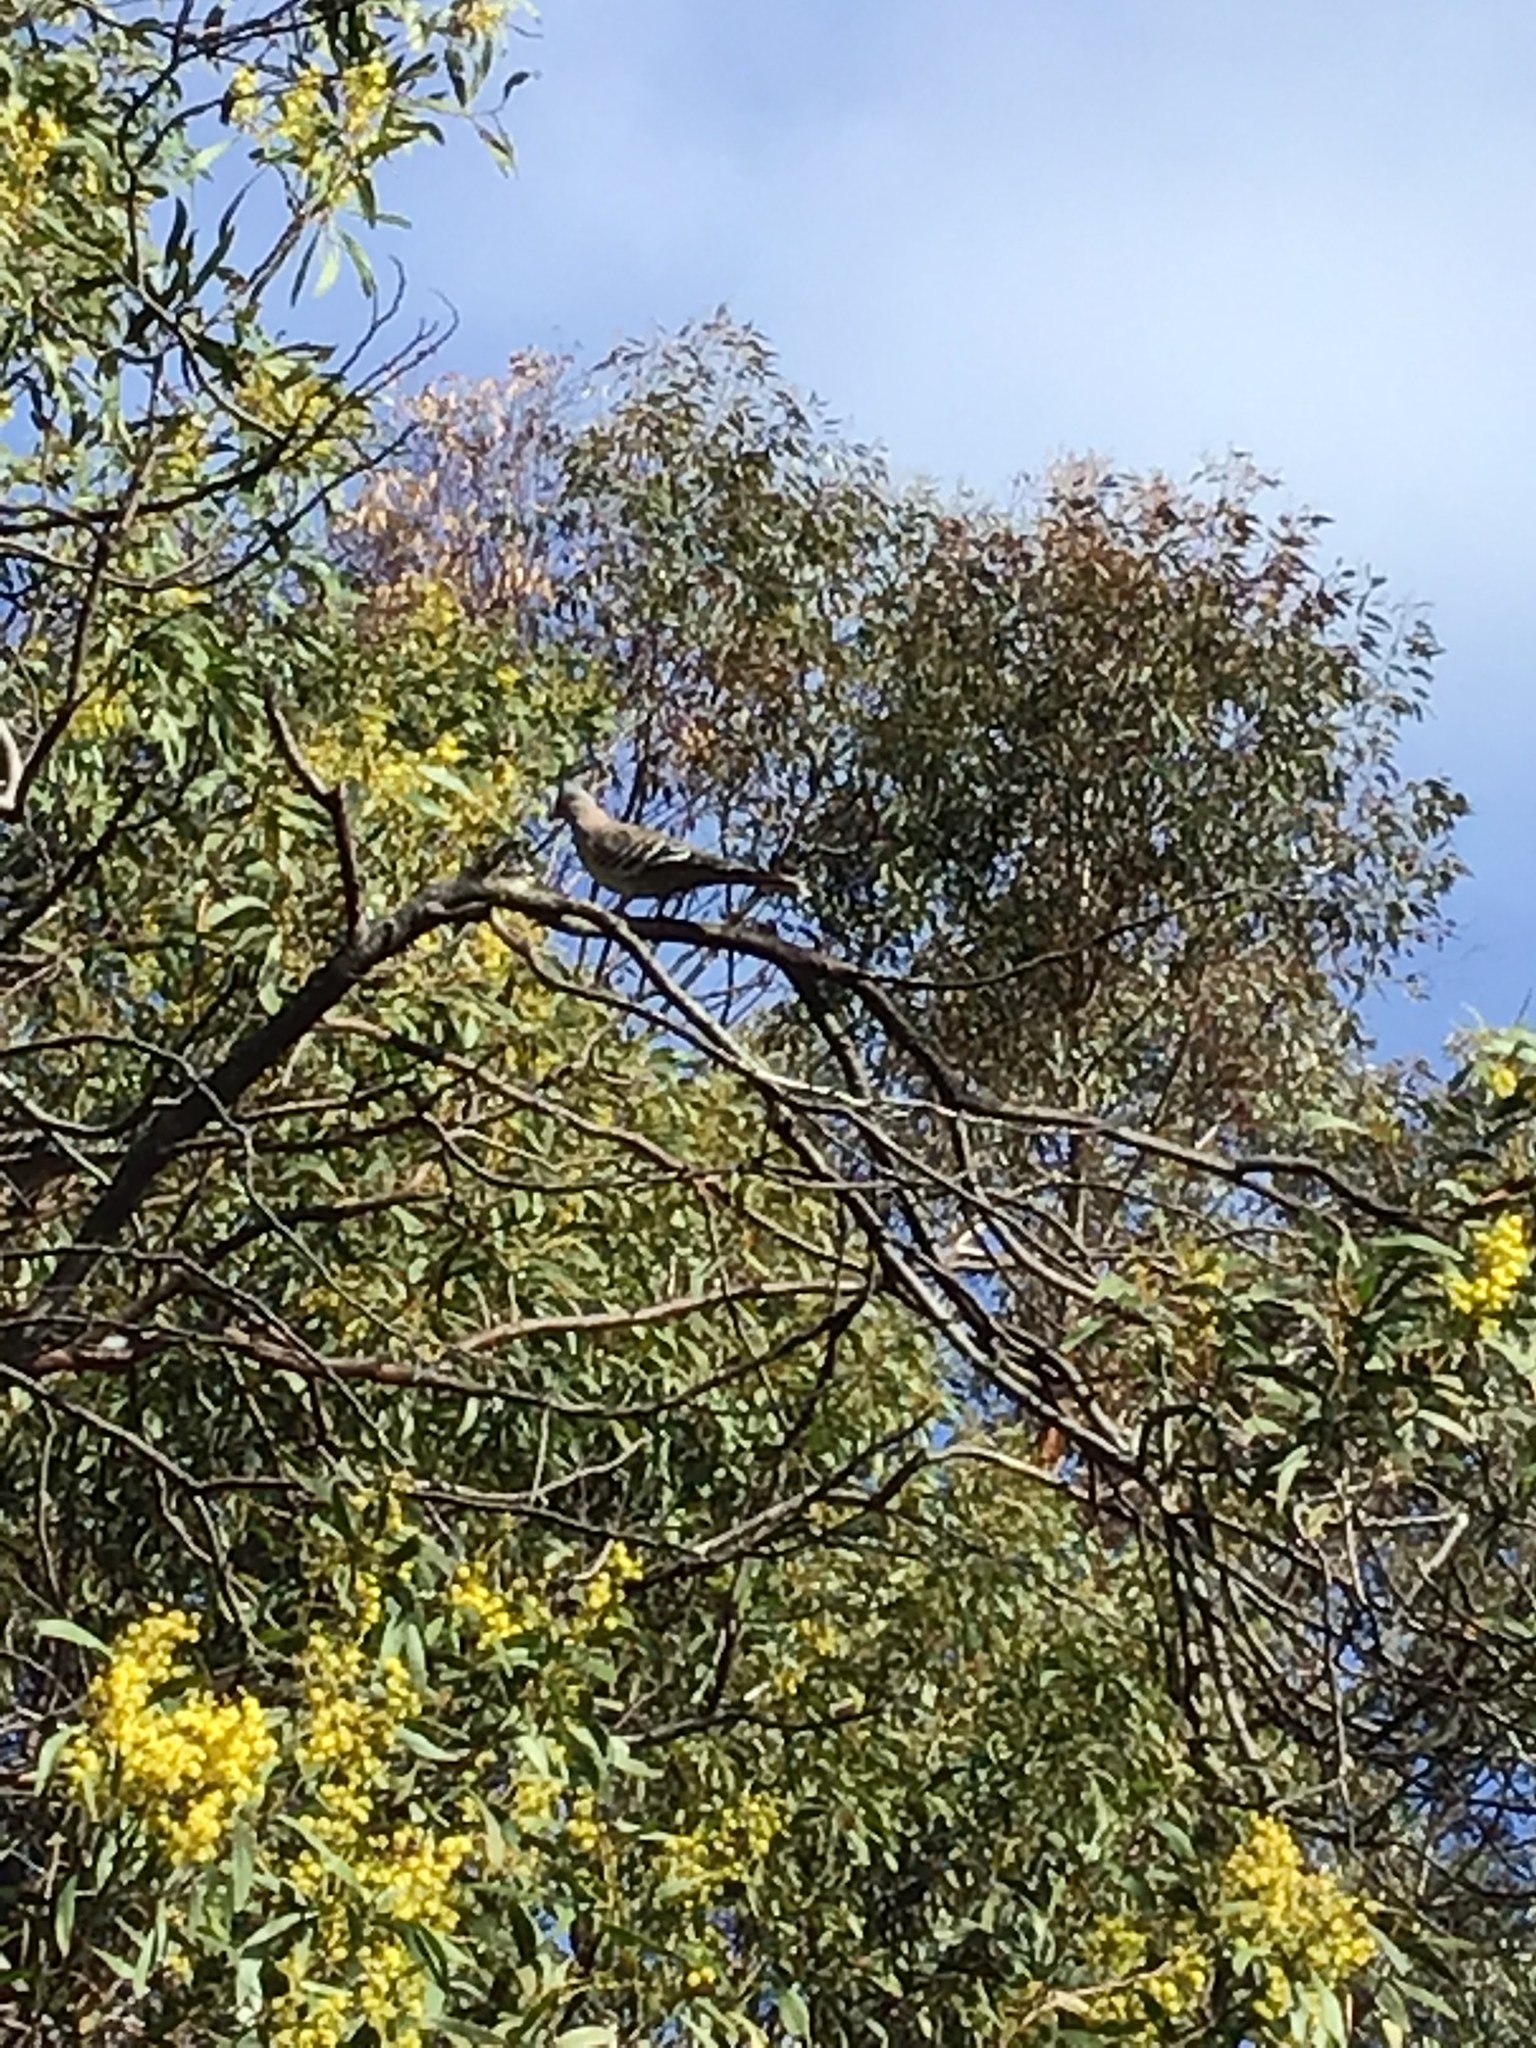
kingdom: Animalia
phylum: Chordata
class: Aves
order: Columbiformes
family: Columbidae
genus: Ocyphaps
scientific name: Ocyphaps lophotes
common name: Crested pigeon
